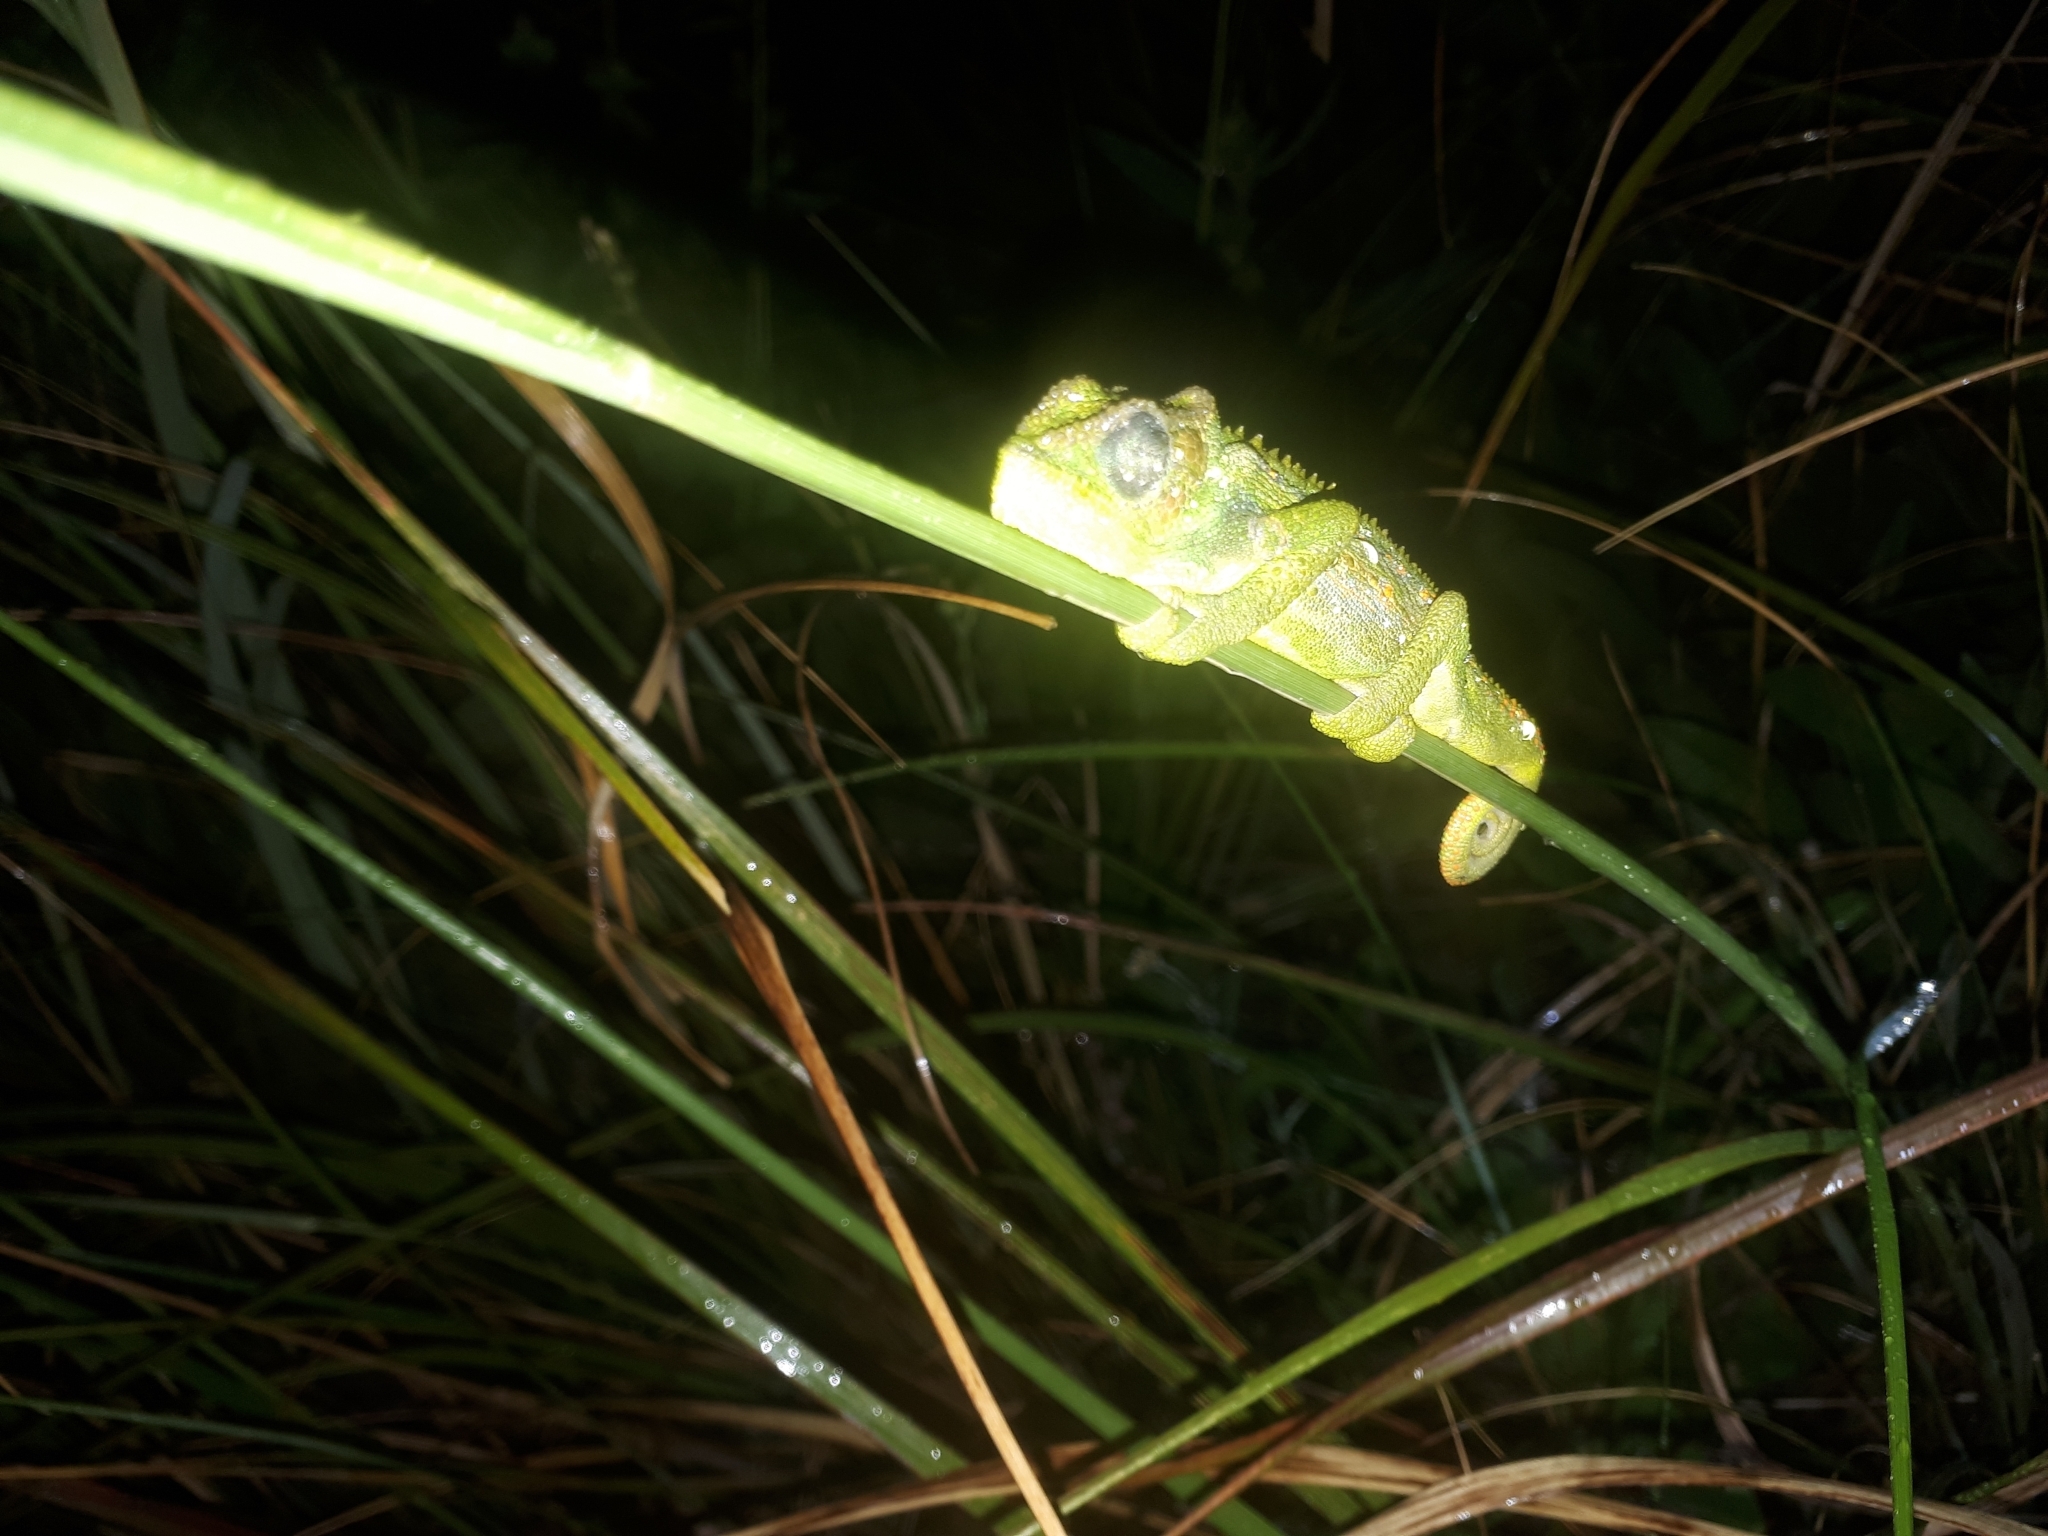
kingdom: Animalia
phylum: Chordata
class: Squamata
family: Chamaeleonidae
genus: Bradypodion
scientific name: Bradypodion pumilum
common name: Cape dwarf chameleon
